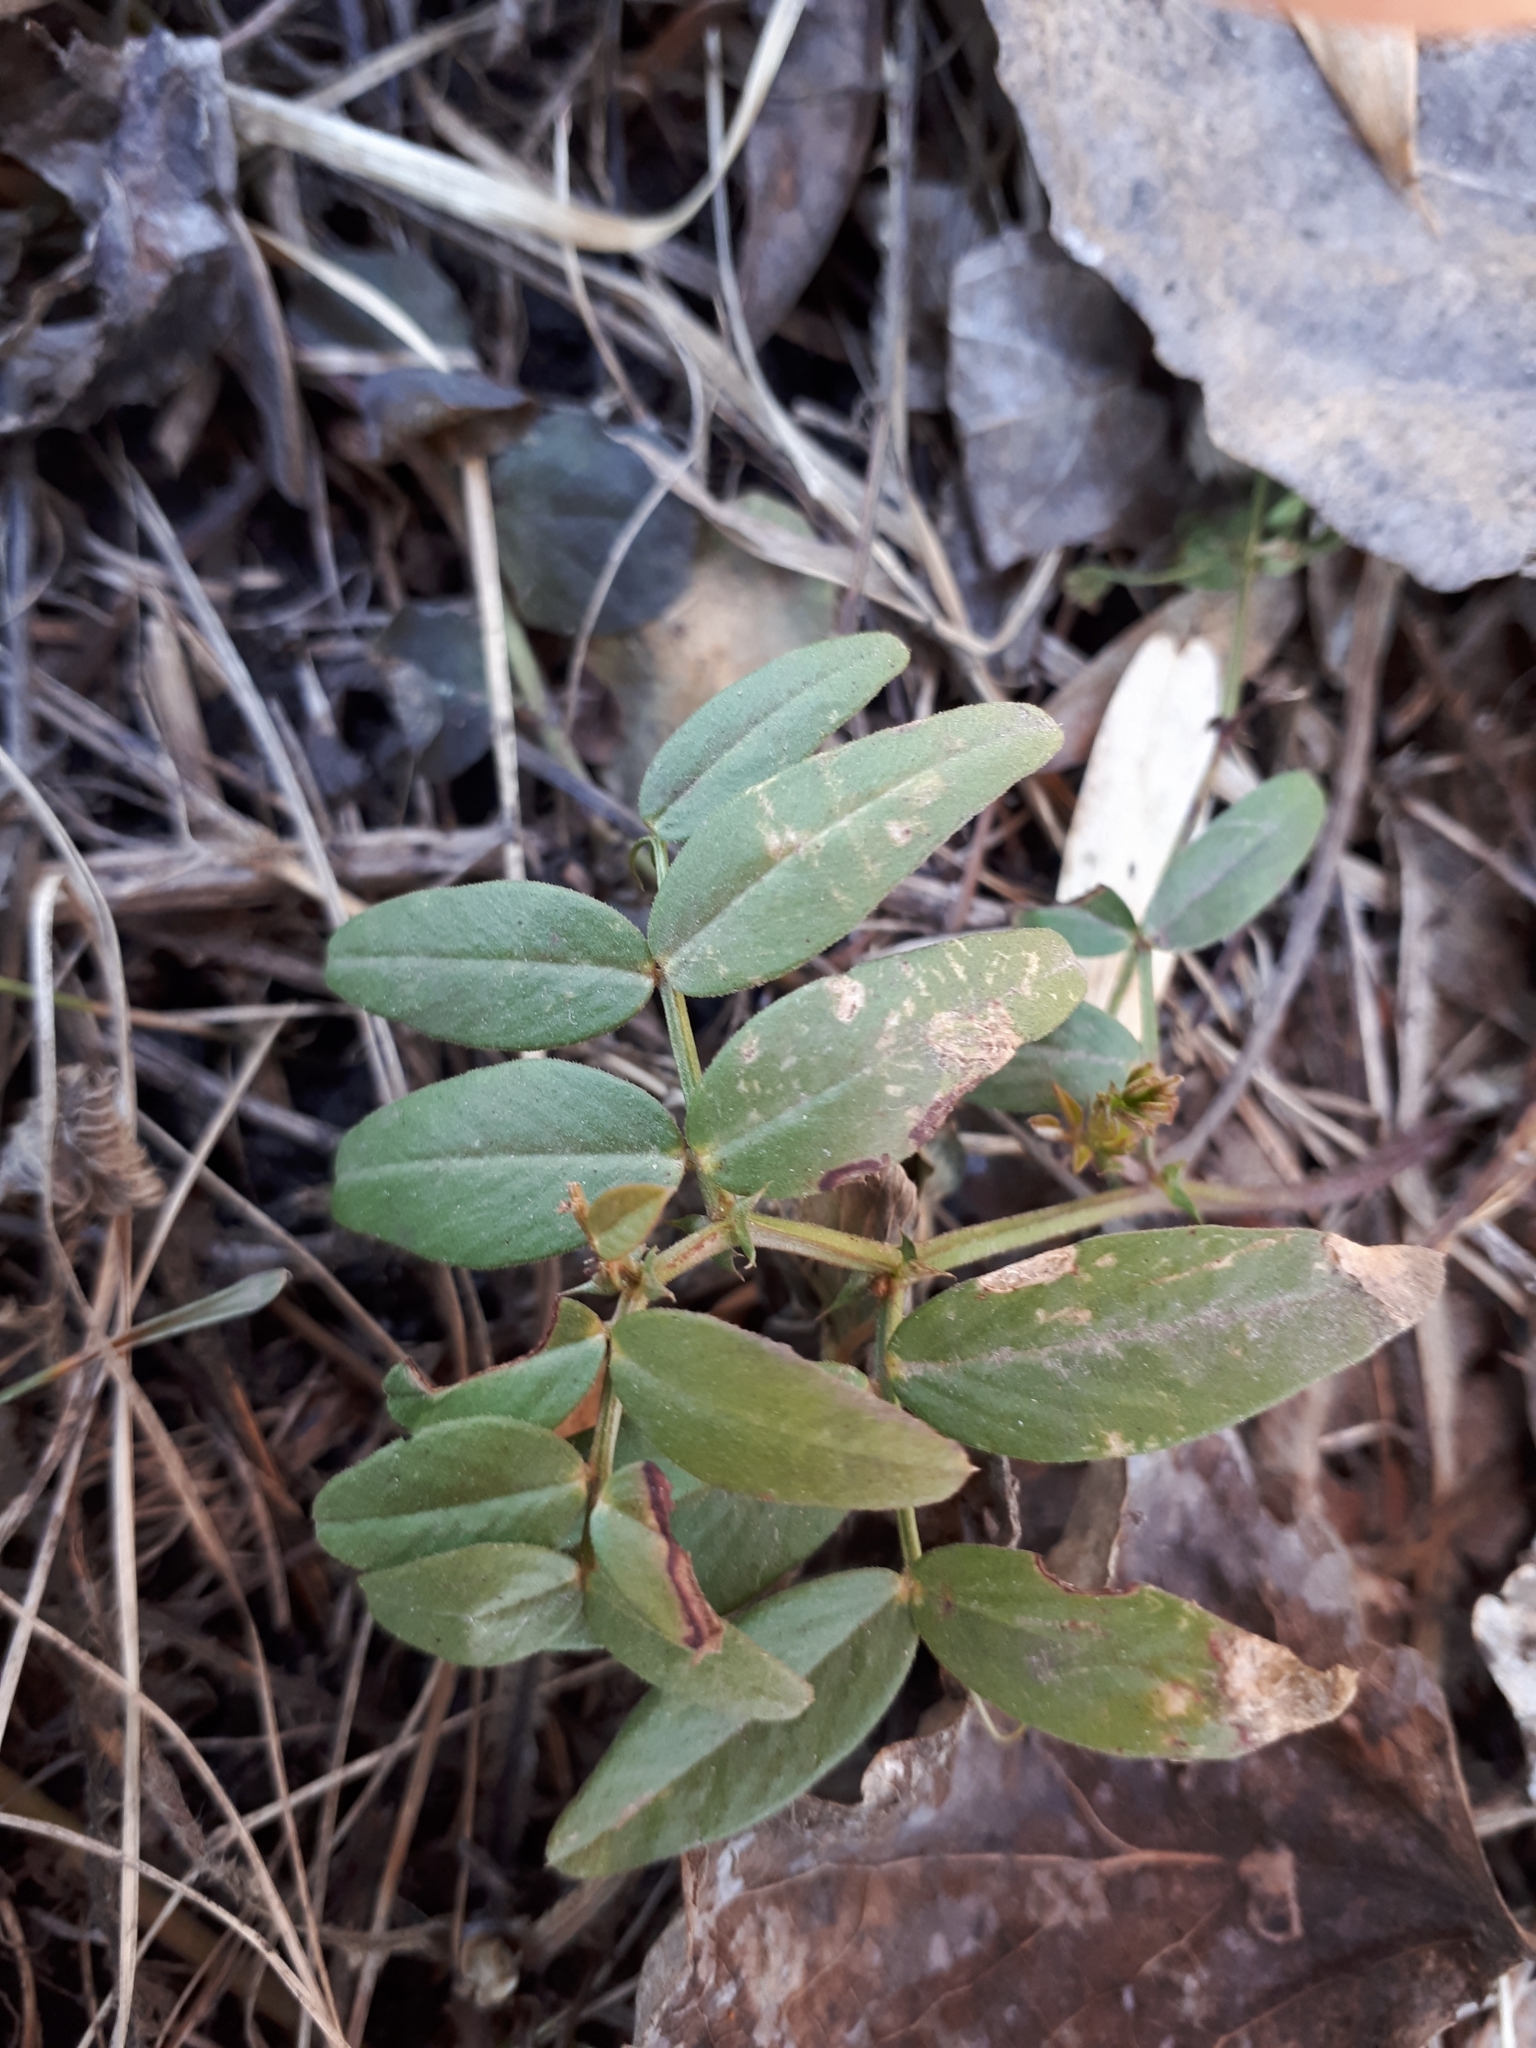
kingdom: Plantae
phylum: Tracheophyta
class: Magnoliopsida
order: Fabales
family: Fabaceae
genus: Vicia
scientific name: Vicia sepium
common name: Bush vetch
